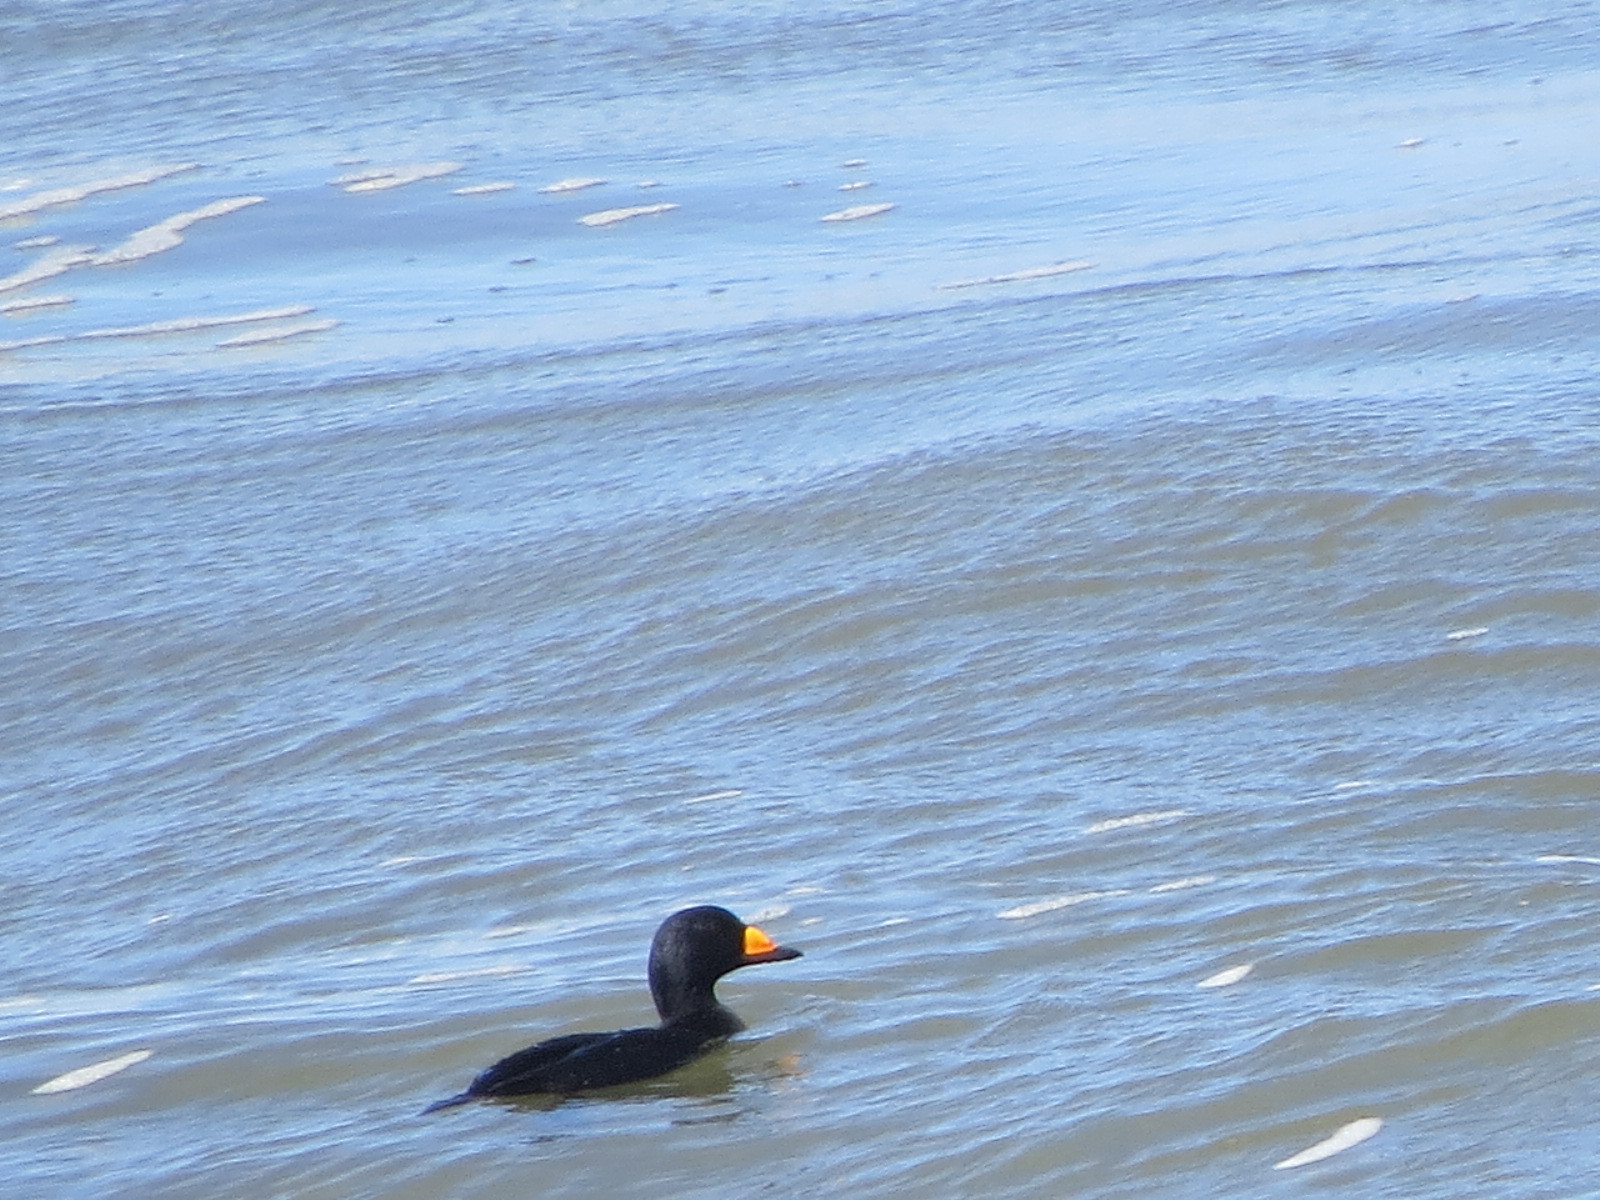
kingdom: Animalia
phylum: Chordata
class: Aves
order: Anseriformes
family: Anatidae
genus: Melanitta
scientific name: Melanitta americana
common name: Black scoter
